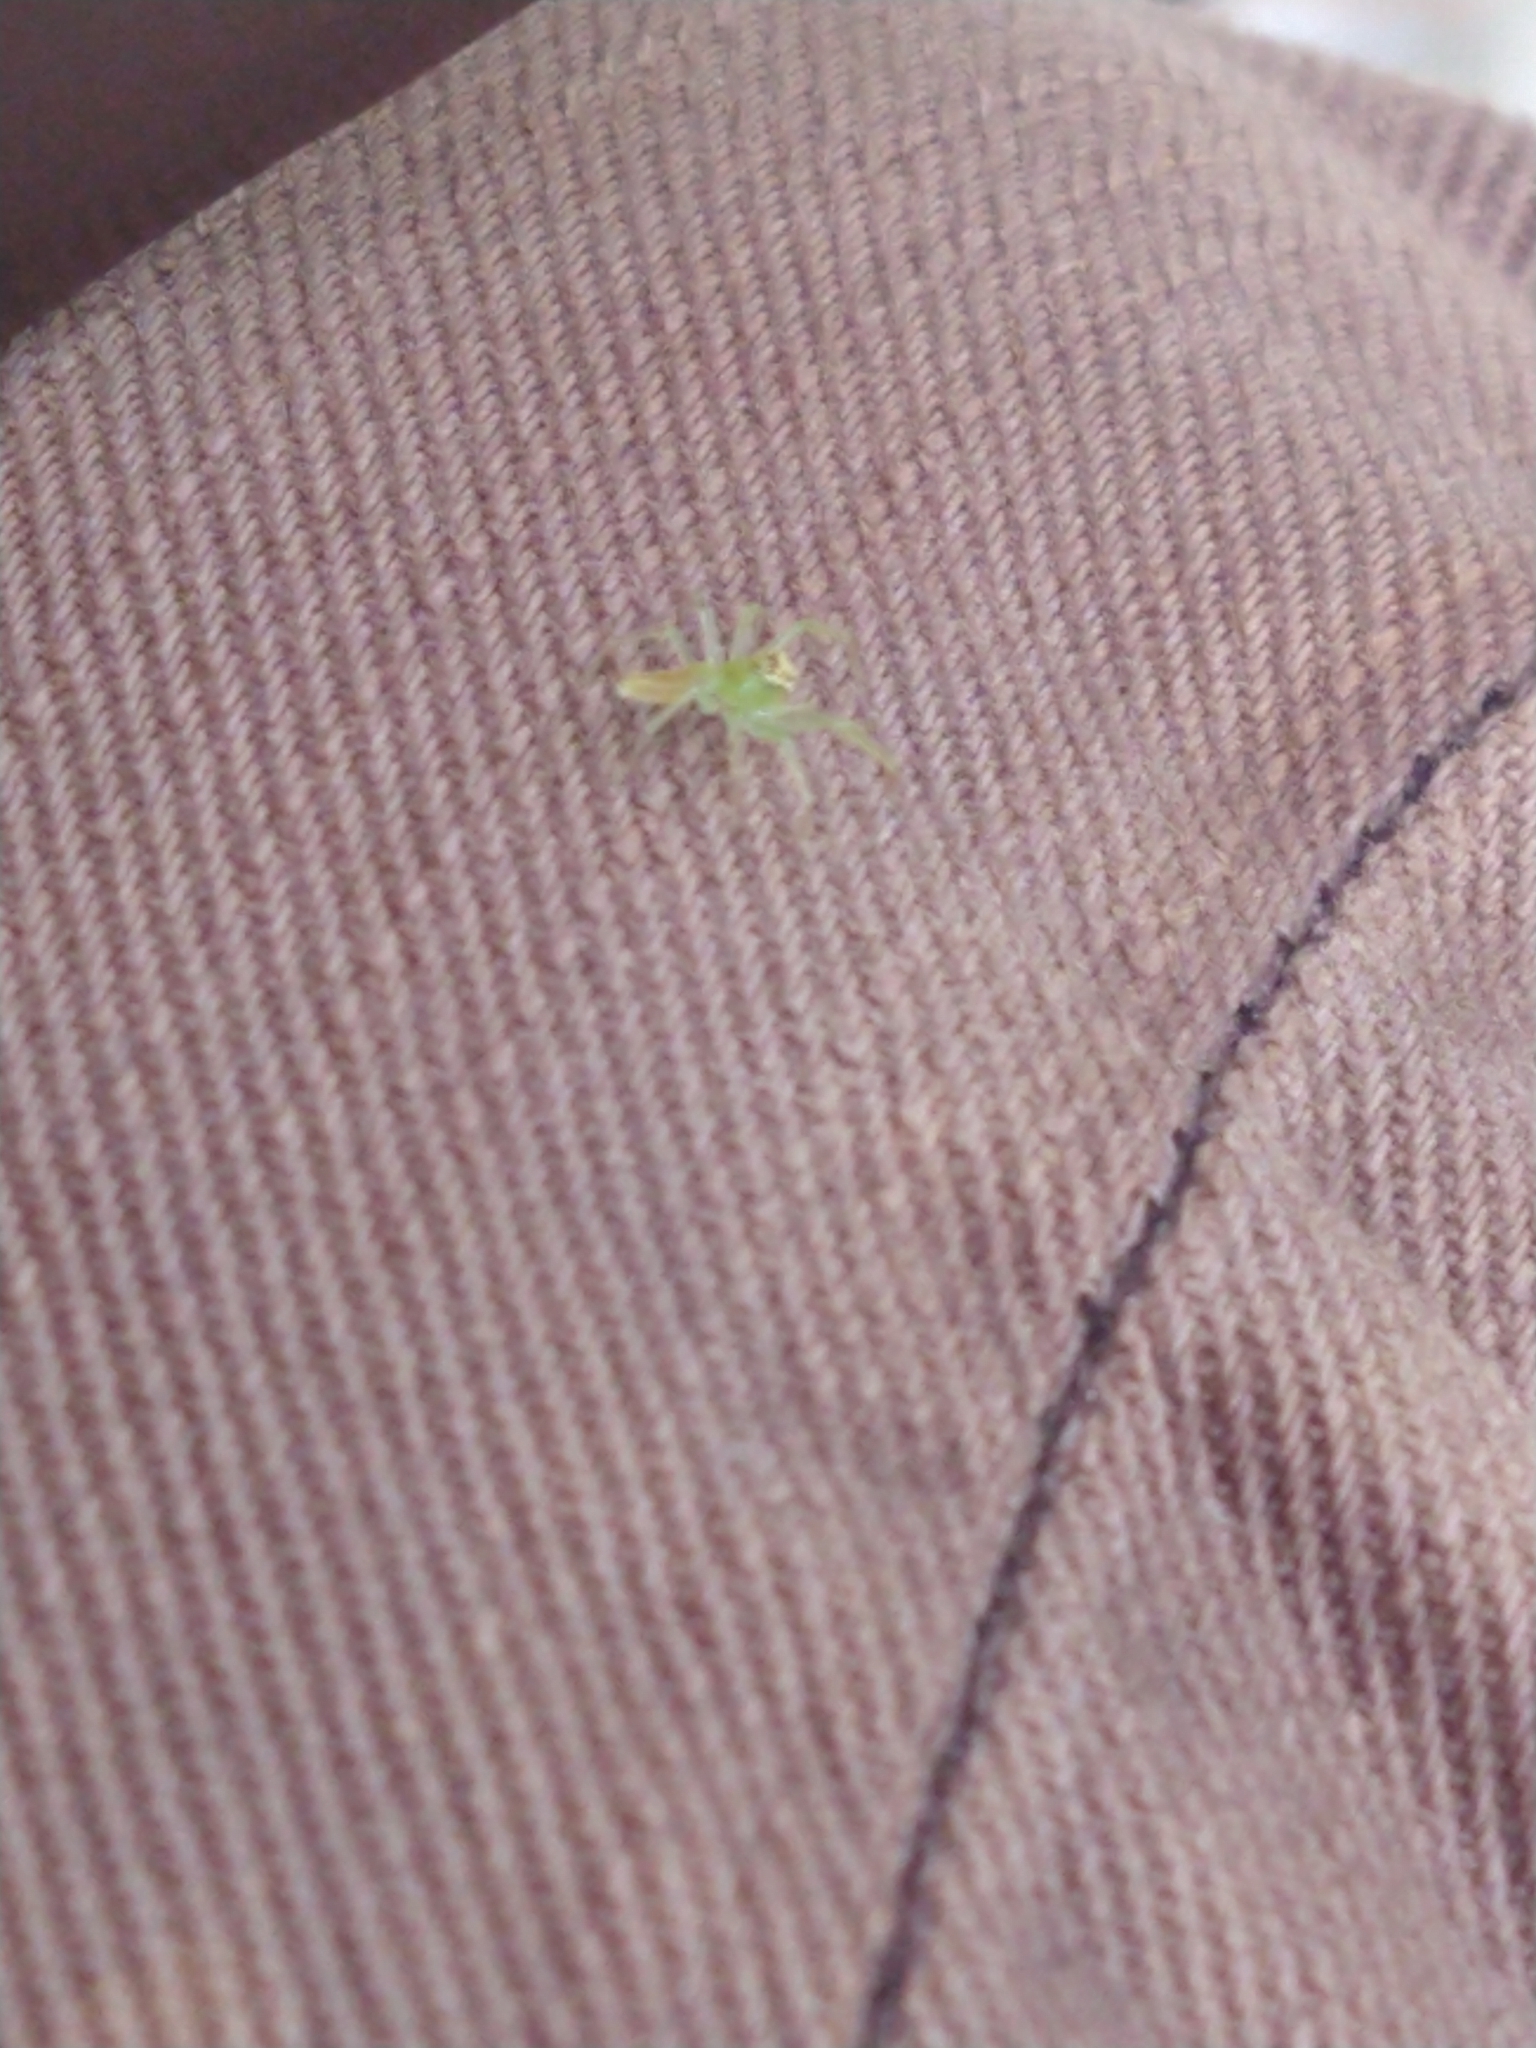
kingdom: Animalia
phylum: Arthropoda
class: Arachnida
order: Araneae
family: Salticidae
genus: Lyssomanes
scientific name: Lyssomanes viridis
